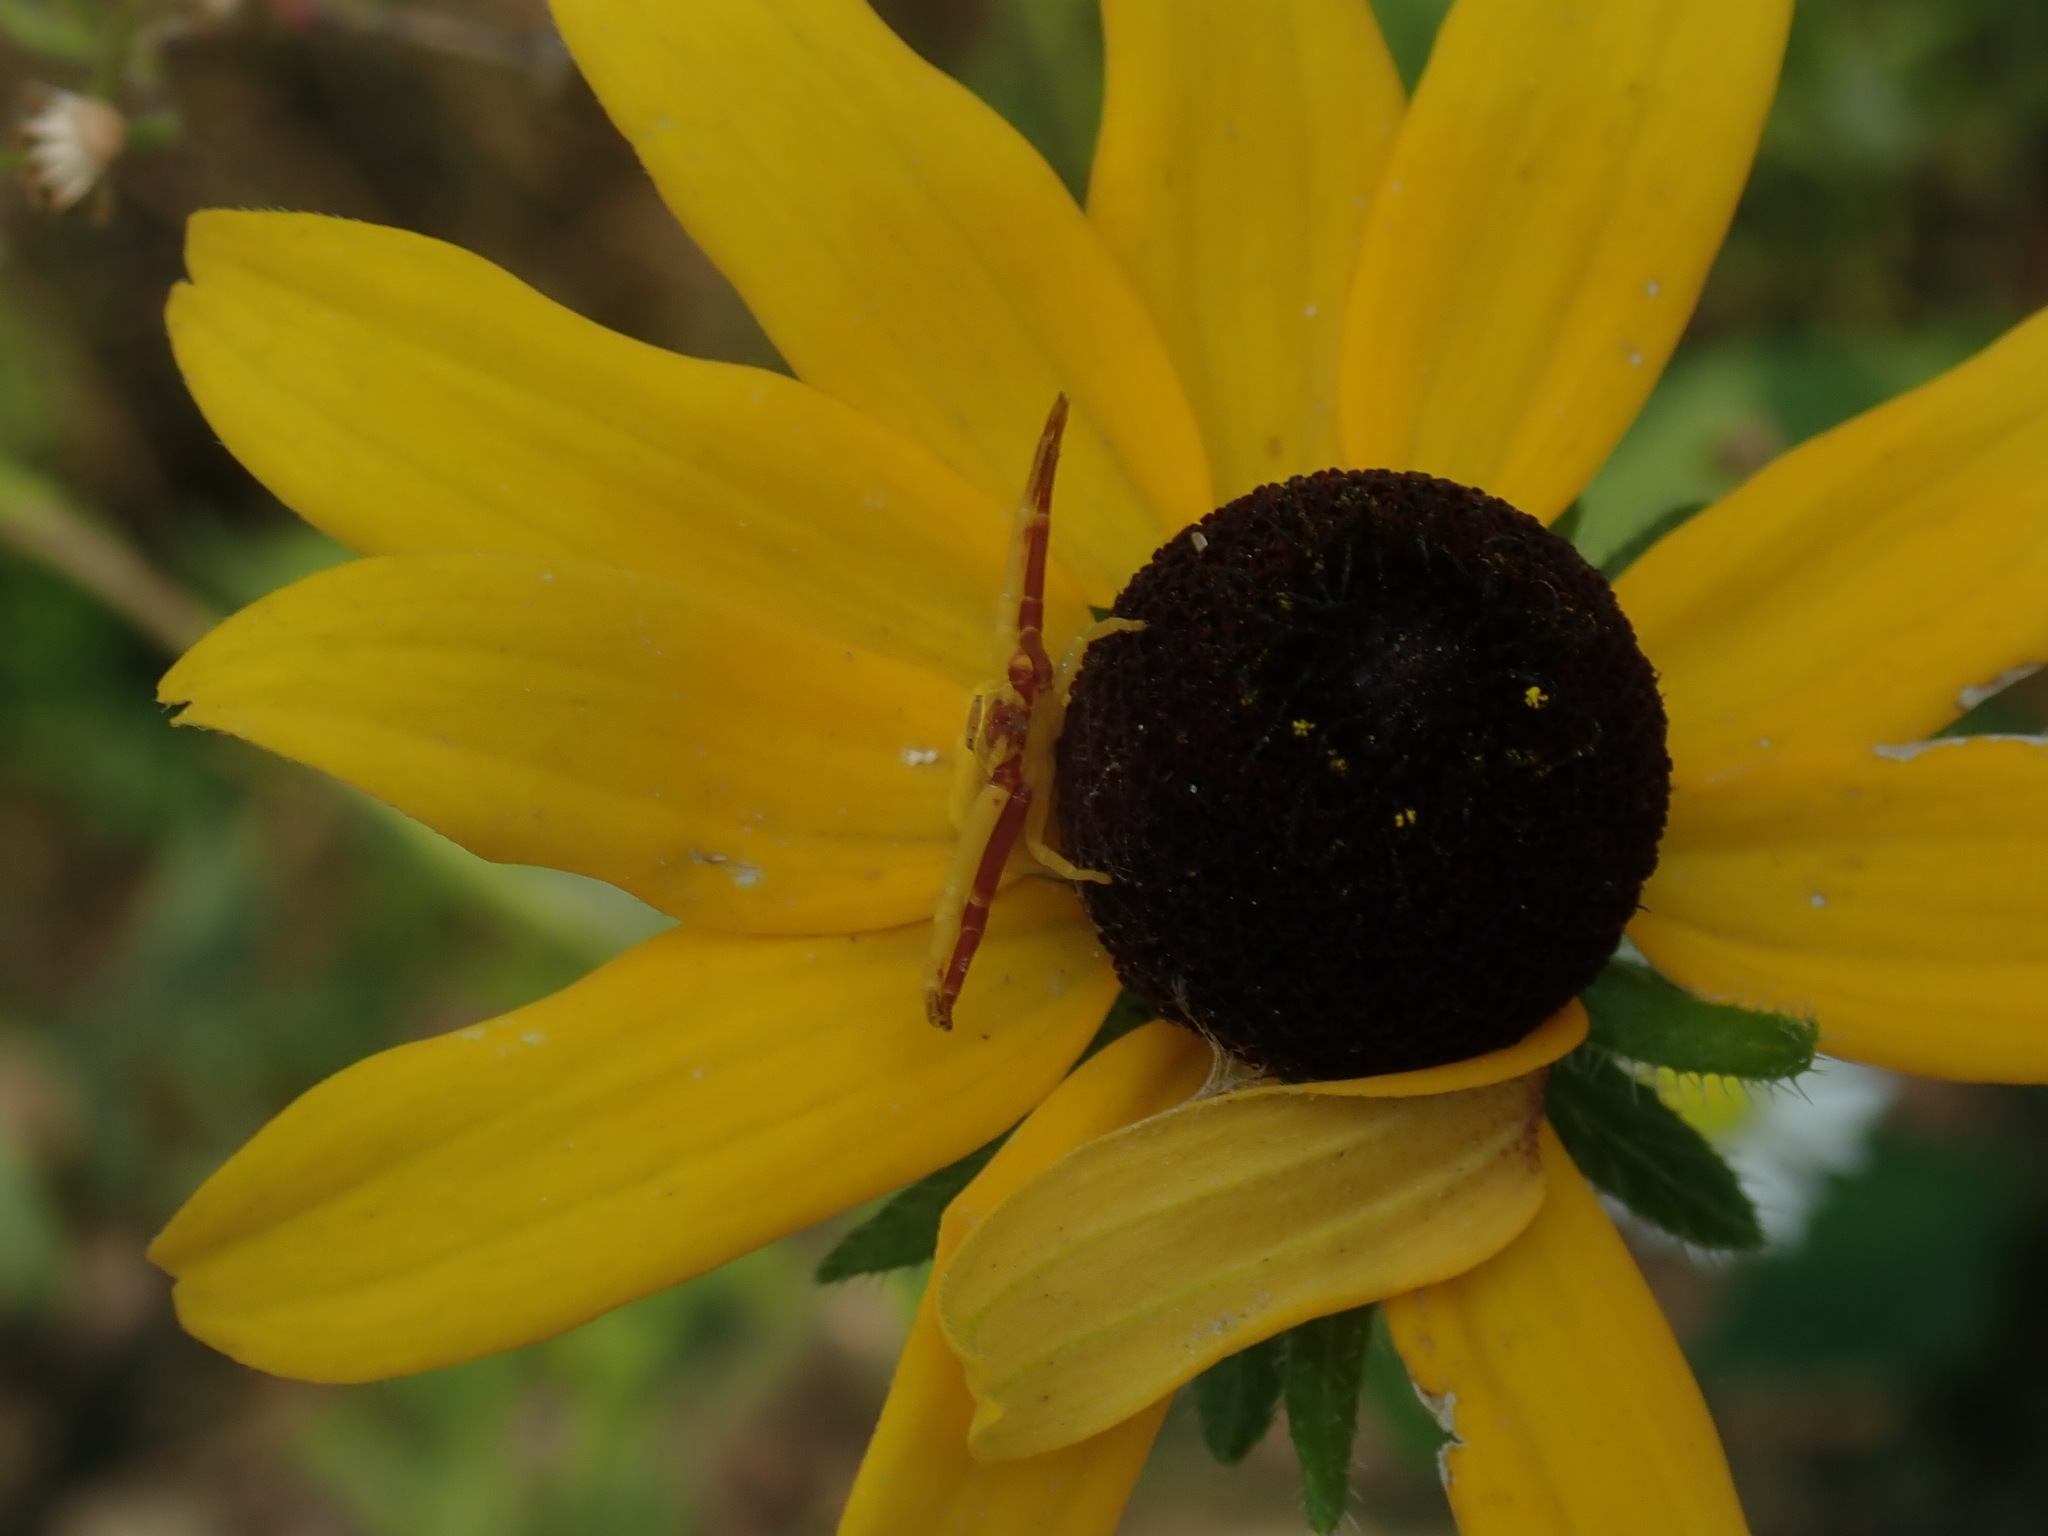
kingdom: Animalia
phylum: Arthropoda
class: Arachnida
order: Araneae
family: Thomisidae
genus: Misumenoides
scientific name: Misumenoides formosipes
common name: White-banded crab spider
